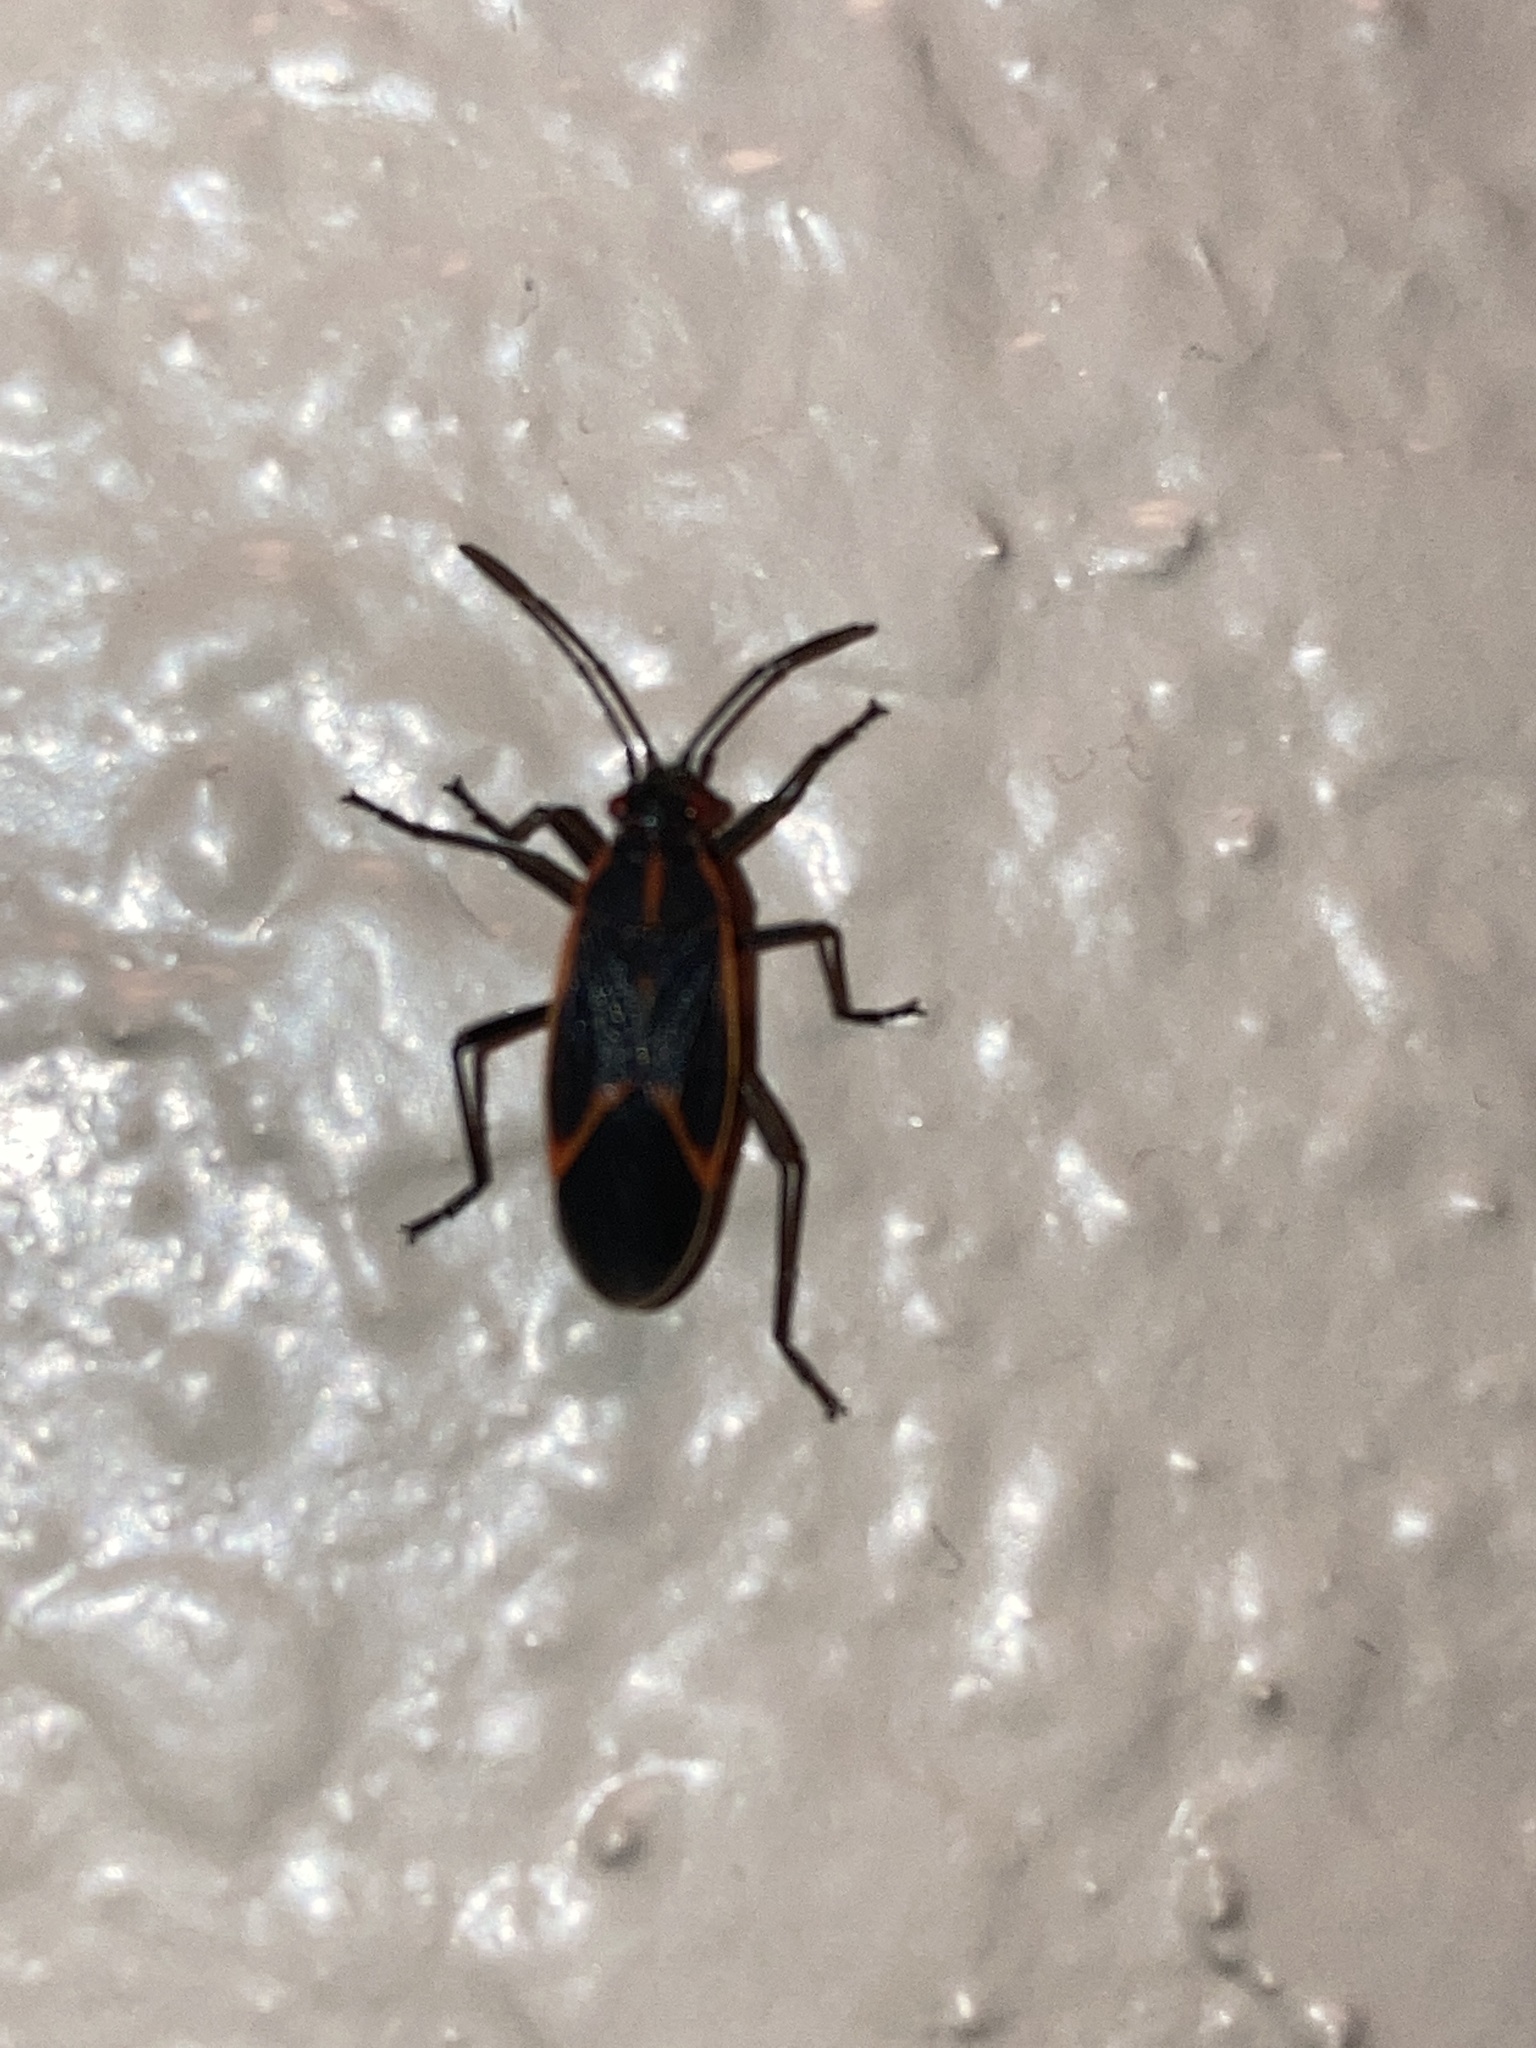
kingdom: Animalia
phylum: Arthropoda
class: Insecta
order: Hemiptera
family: Rhopalidae
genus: Boisea
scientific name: Boisea trivittata
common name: Boxelder bug
